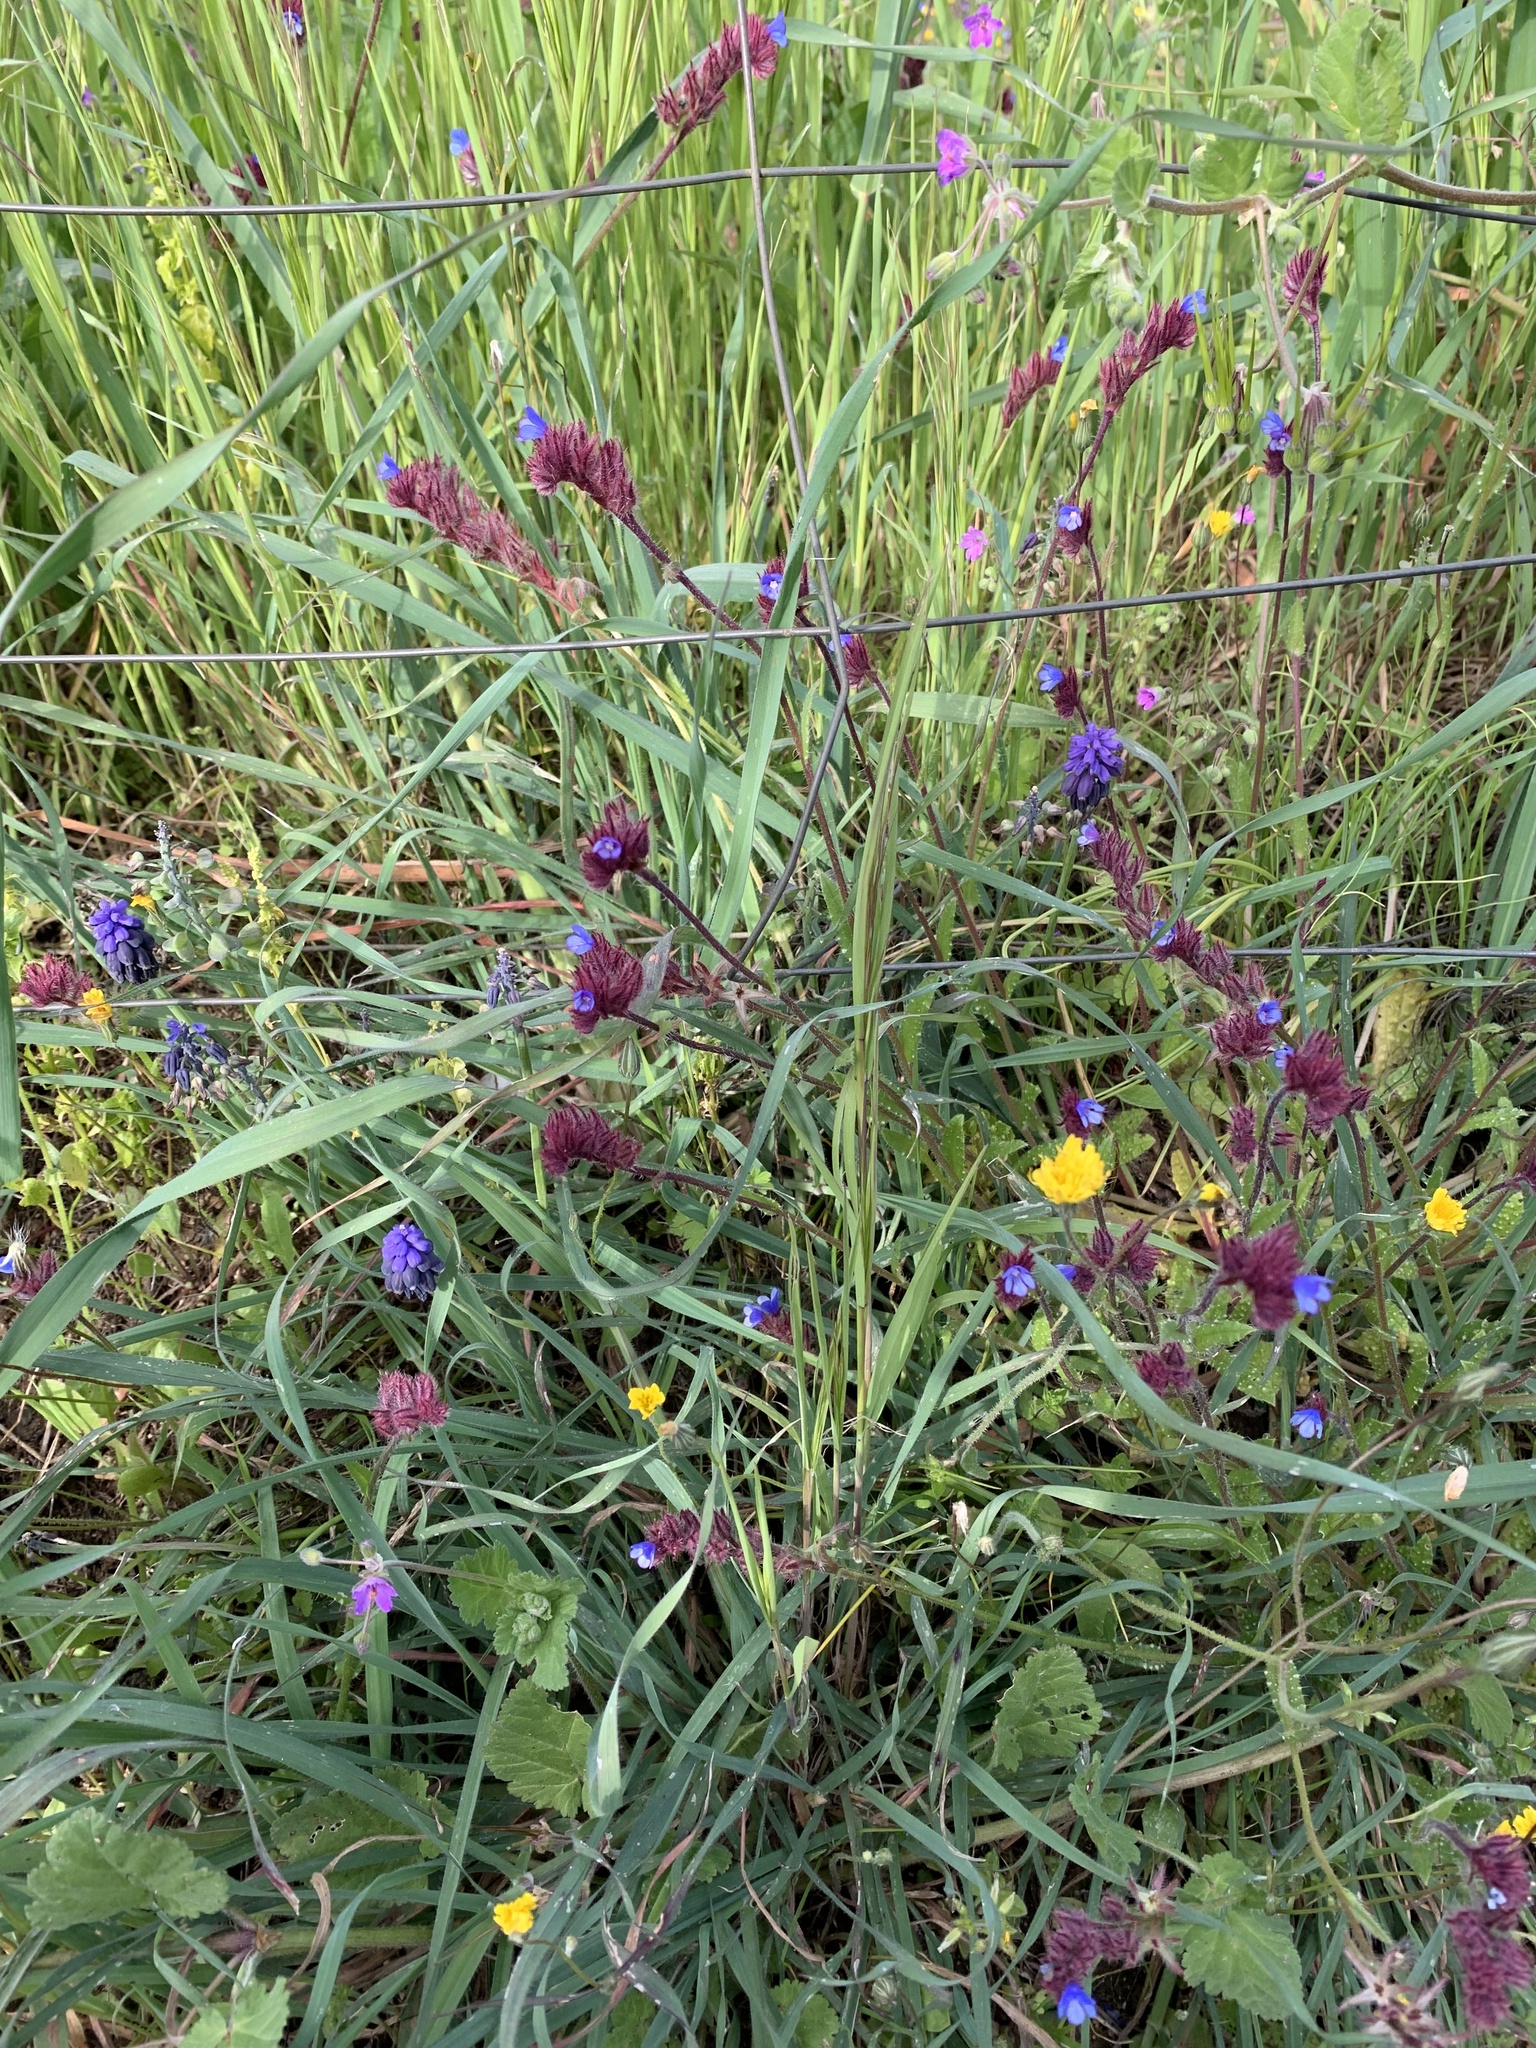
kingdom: Plantae
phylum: Tracheophyta
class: Magnoliopsida
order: Boraginales
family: Boraginaceae
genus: Anchusella
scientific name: Anchusella cretica
